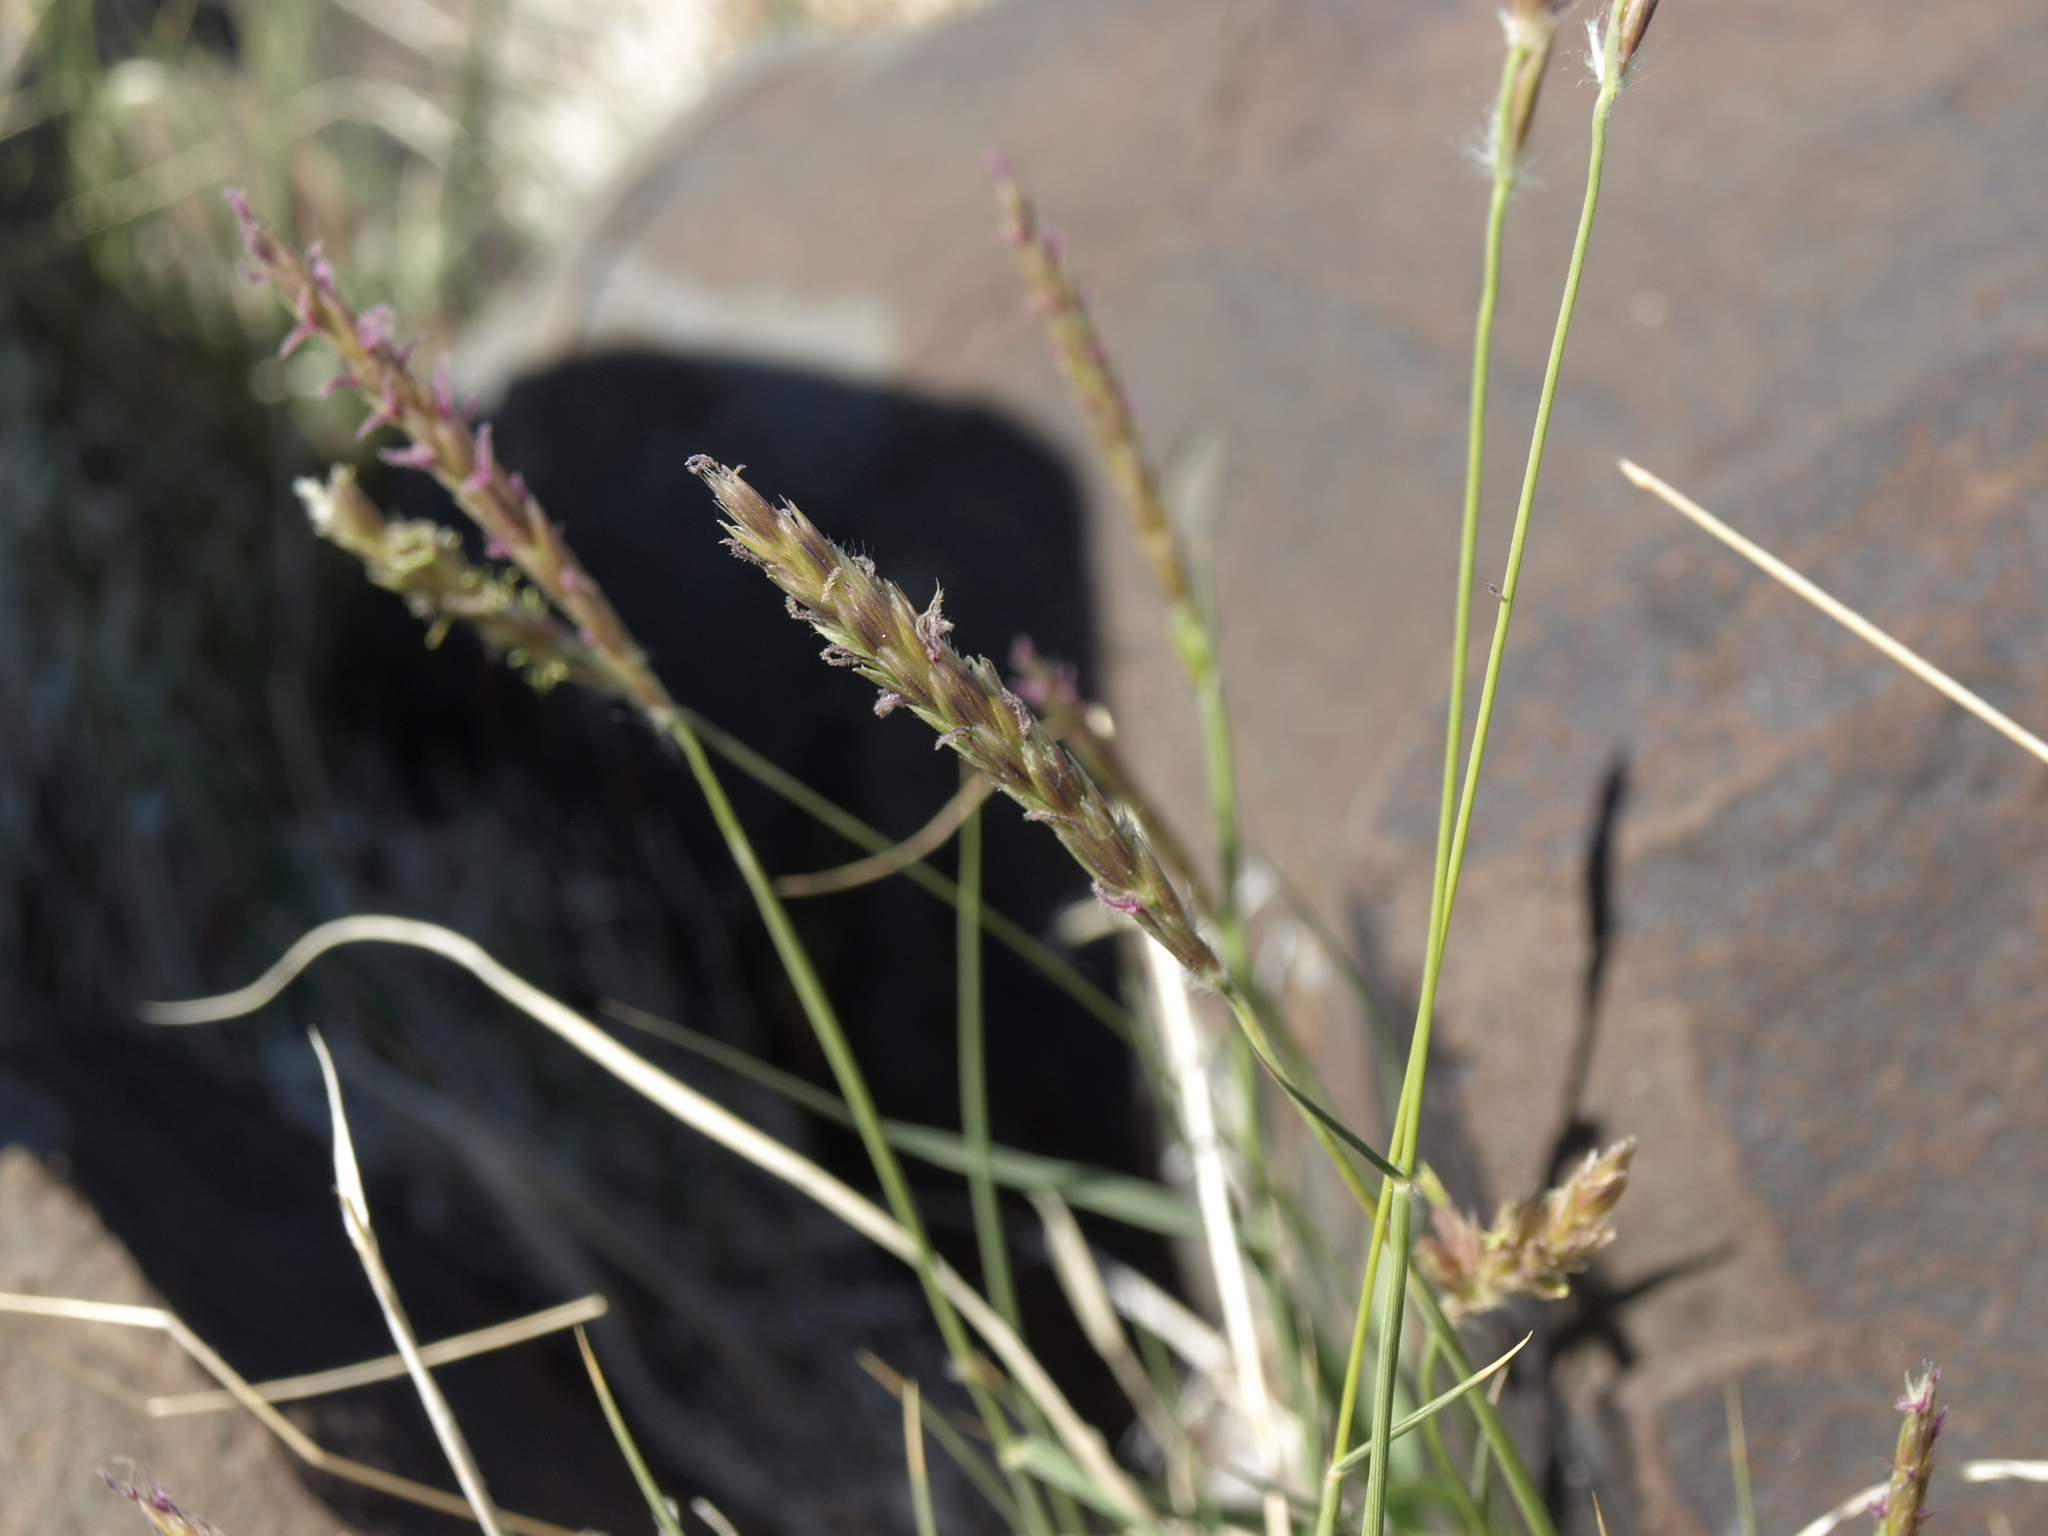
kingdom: Plantae
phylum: Tracheophyta
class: Liliopsida
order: Poales
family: Poaceae
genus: Hilaria
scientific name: Hilaria jamesii
